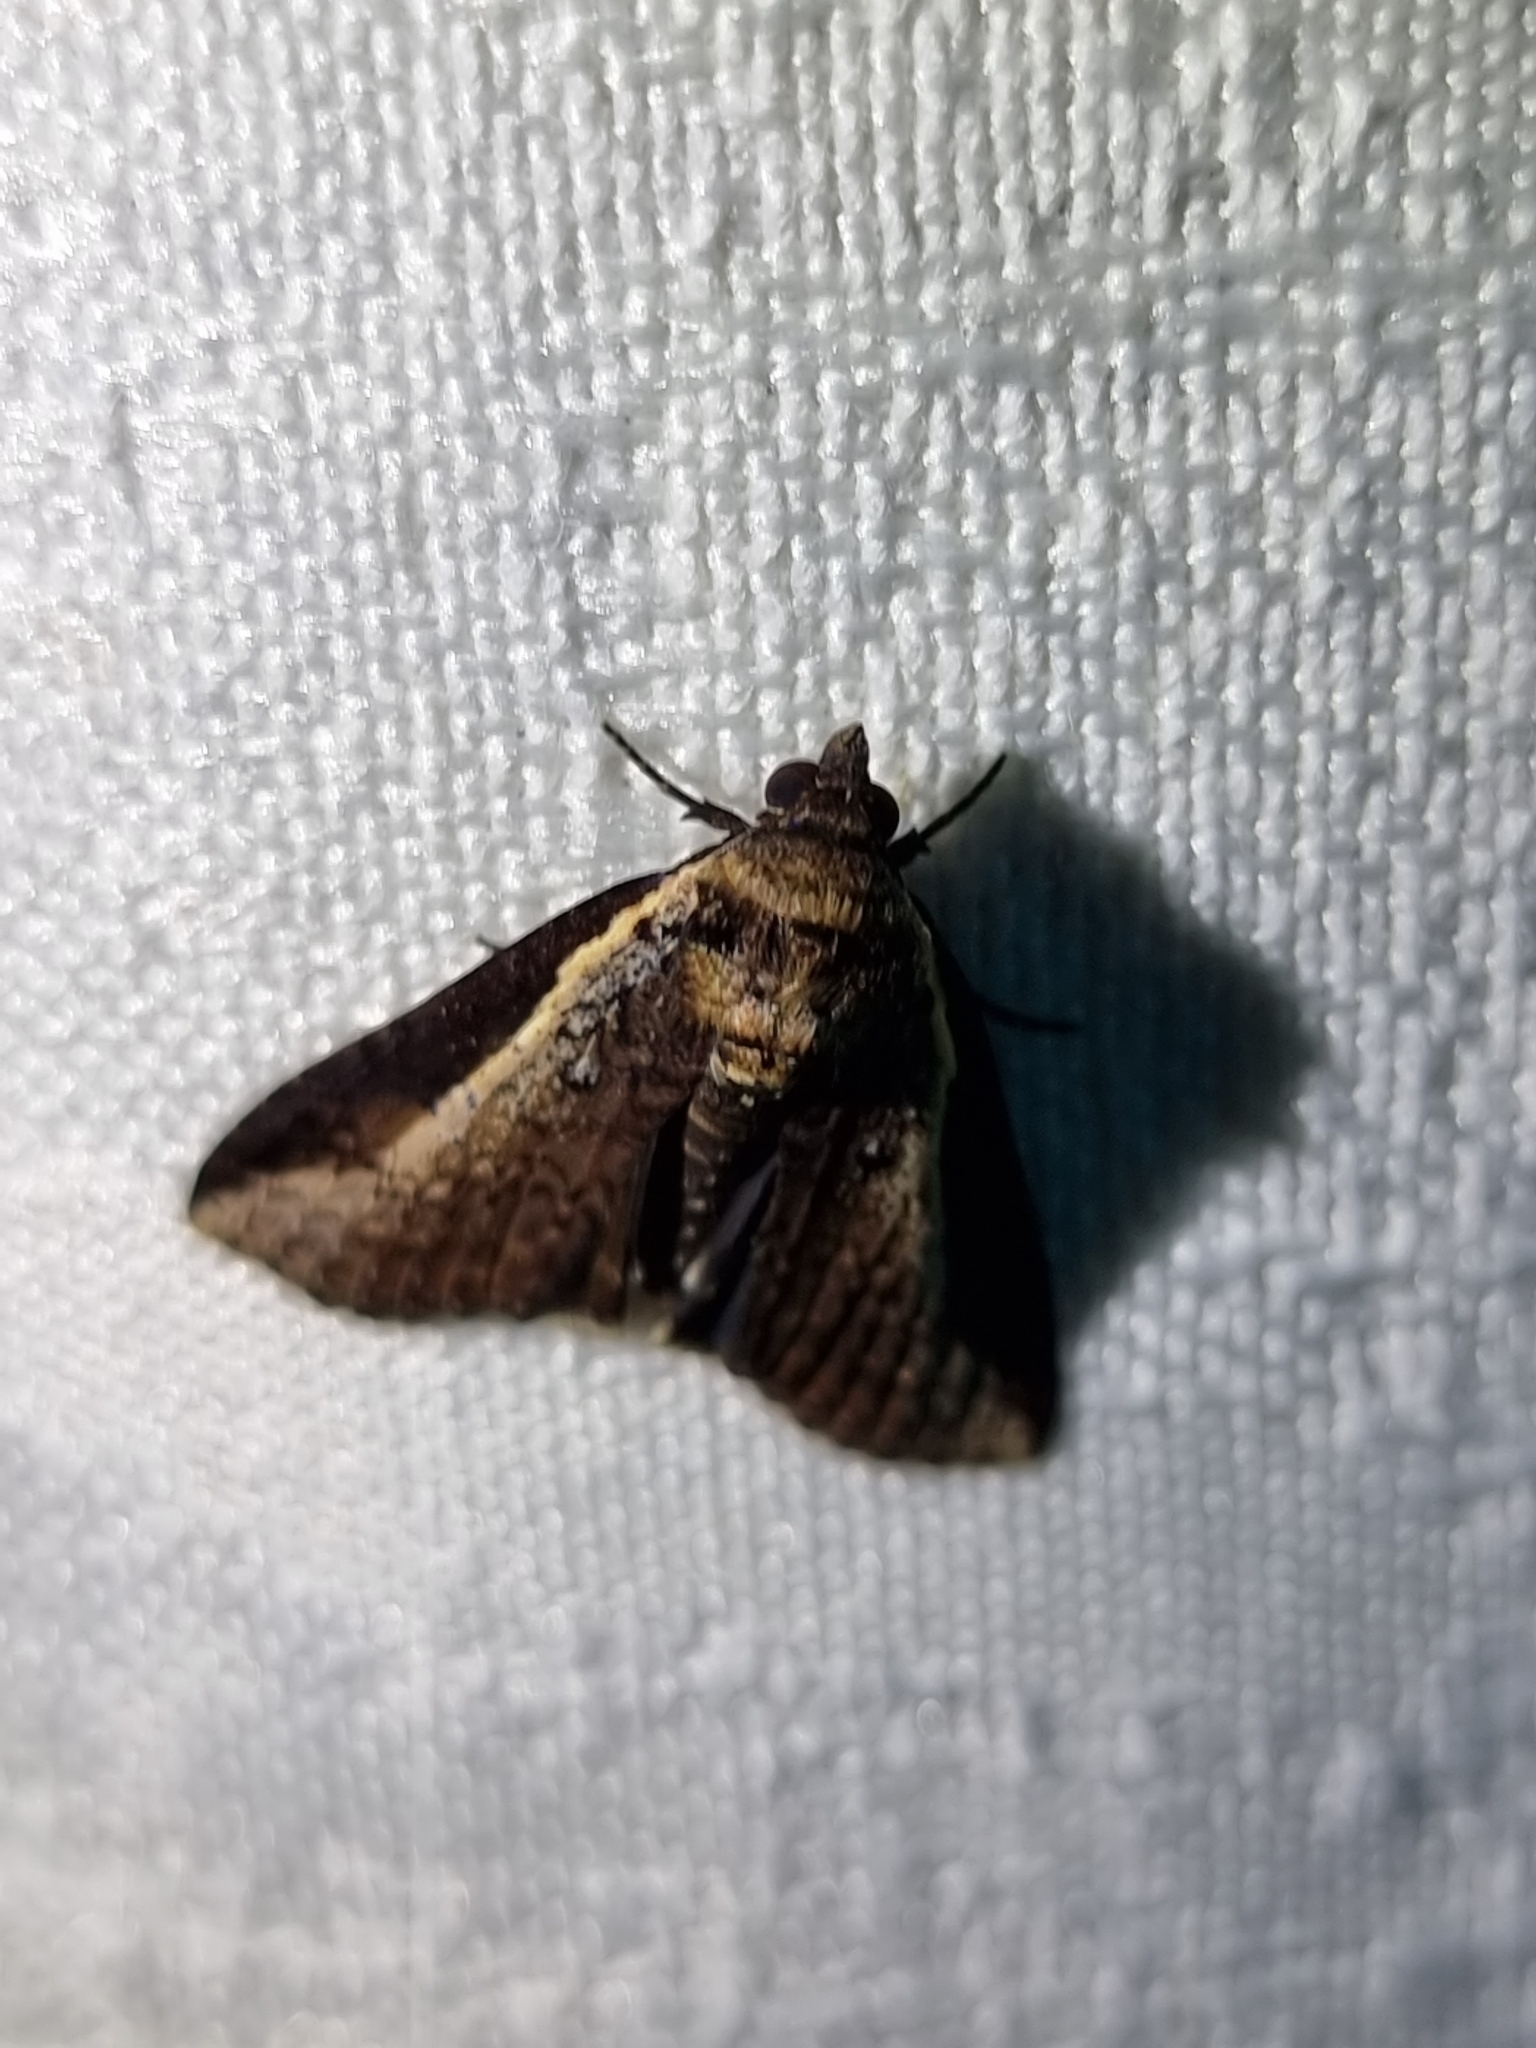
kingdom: Animalia
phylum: Arthropoda
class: Insecta
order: Lepidoptera
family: Euteliidae
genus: Lophoptera
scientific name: Lophoptera vittigera
